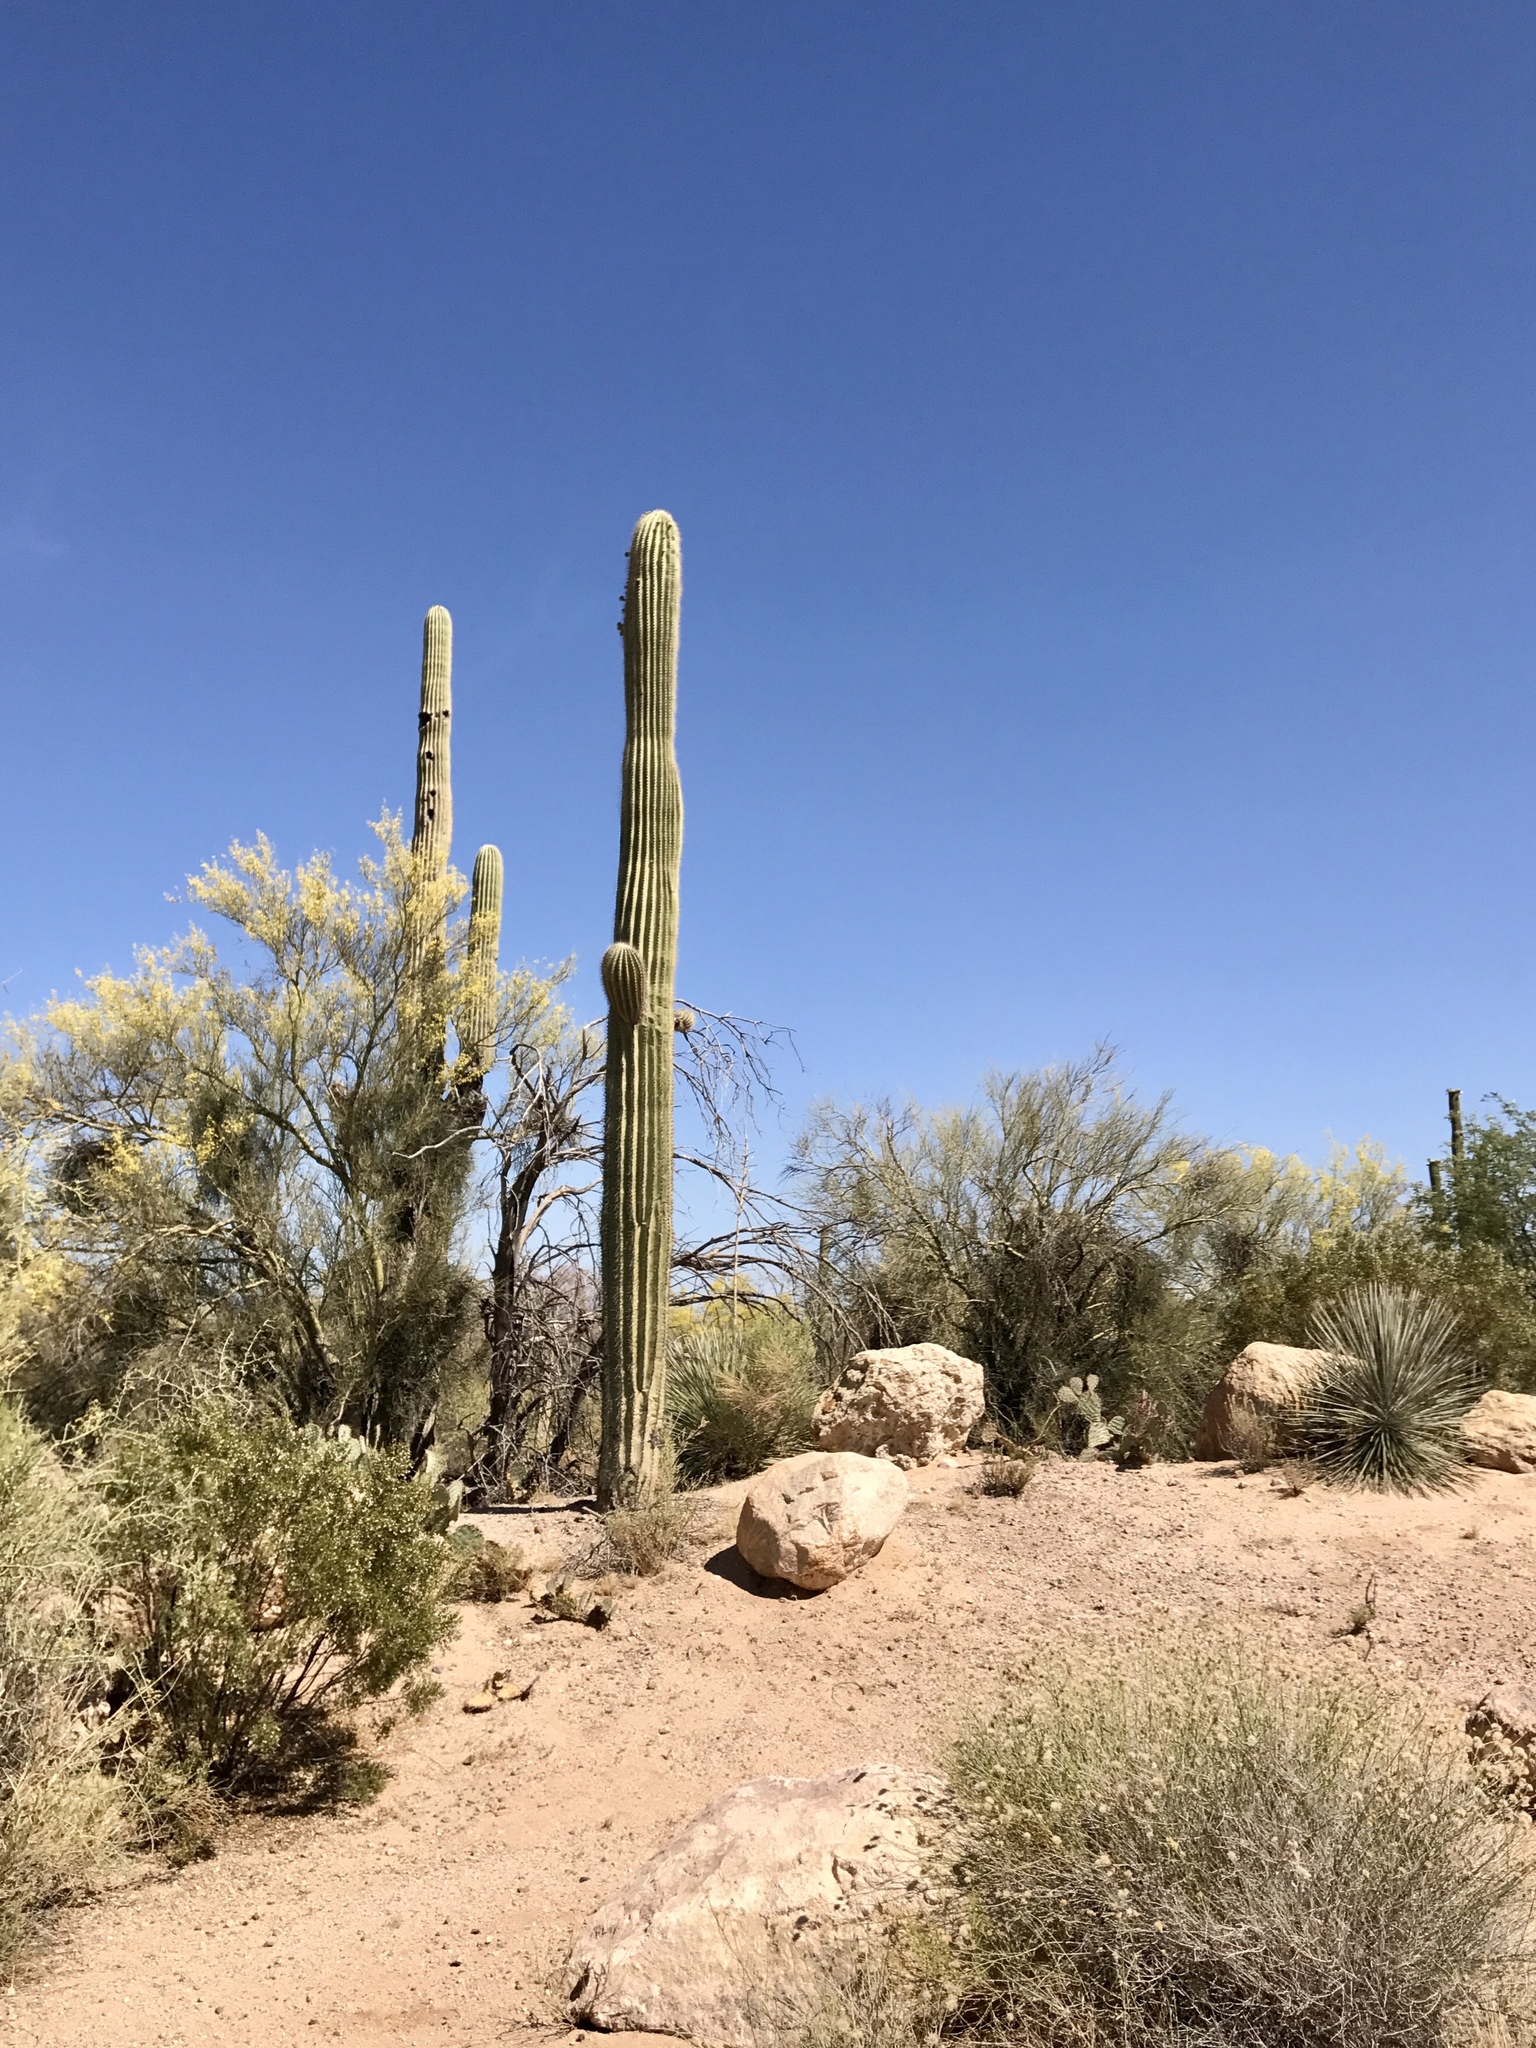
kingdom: Plantae
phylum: Tracheophyta
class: Magnoliopsida
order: Caryophyllales
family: Cactaceae
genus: Carnegiea
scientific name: Carnegiea gigantea
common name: Saguaro
